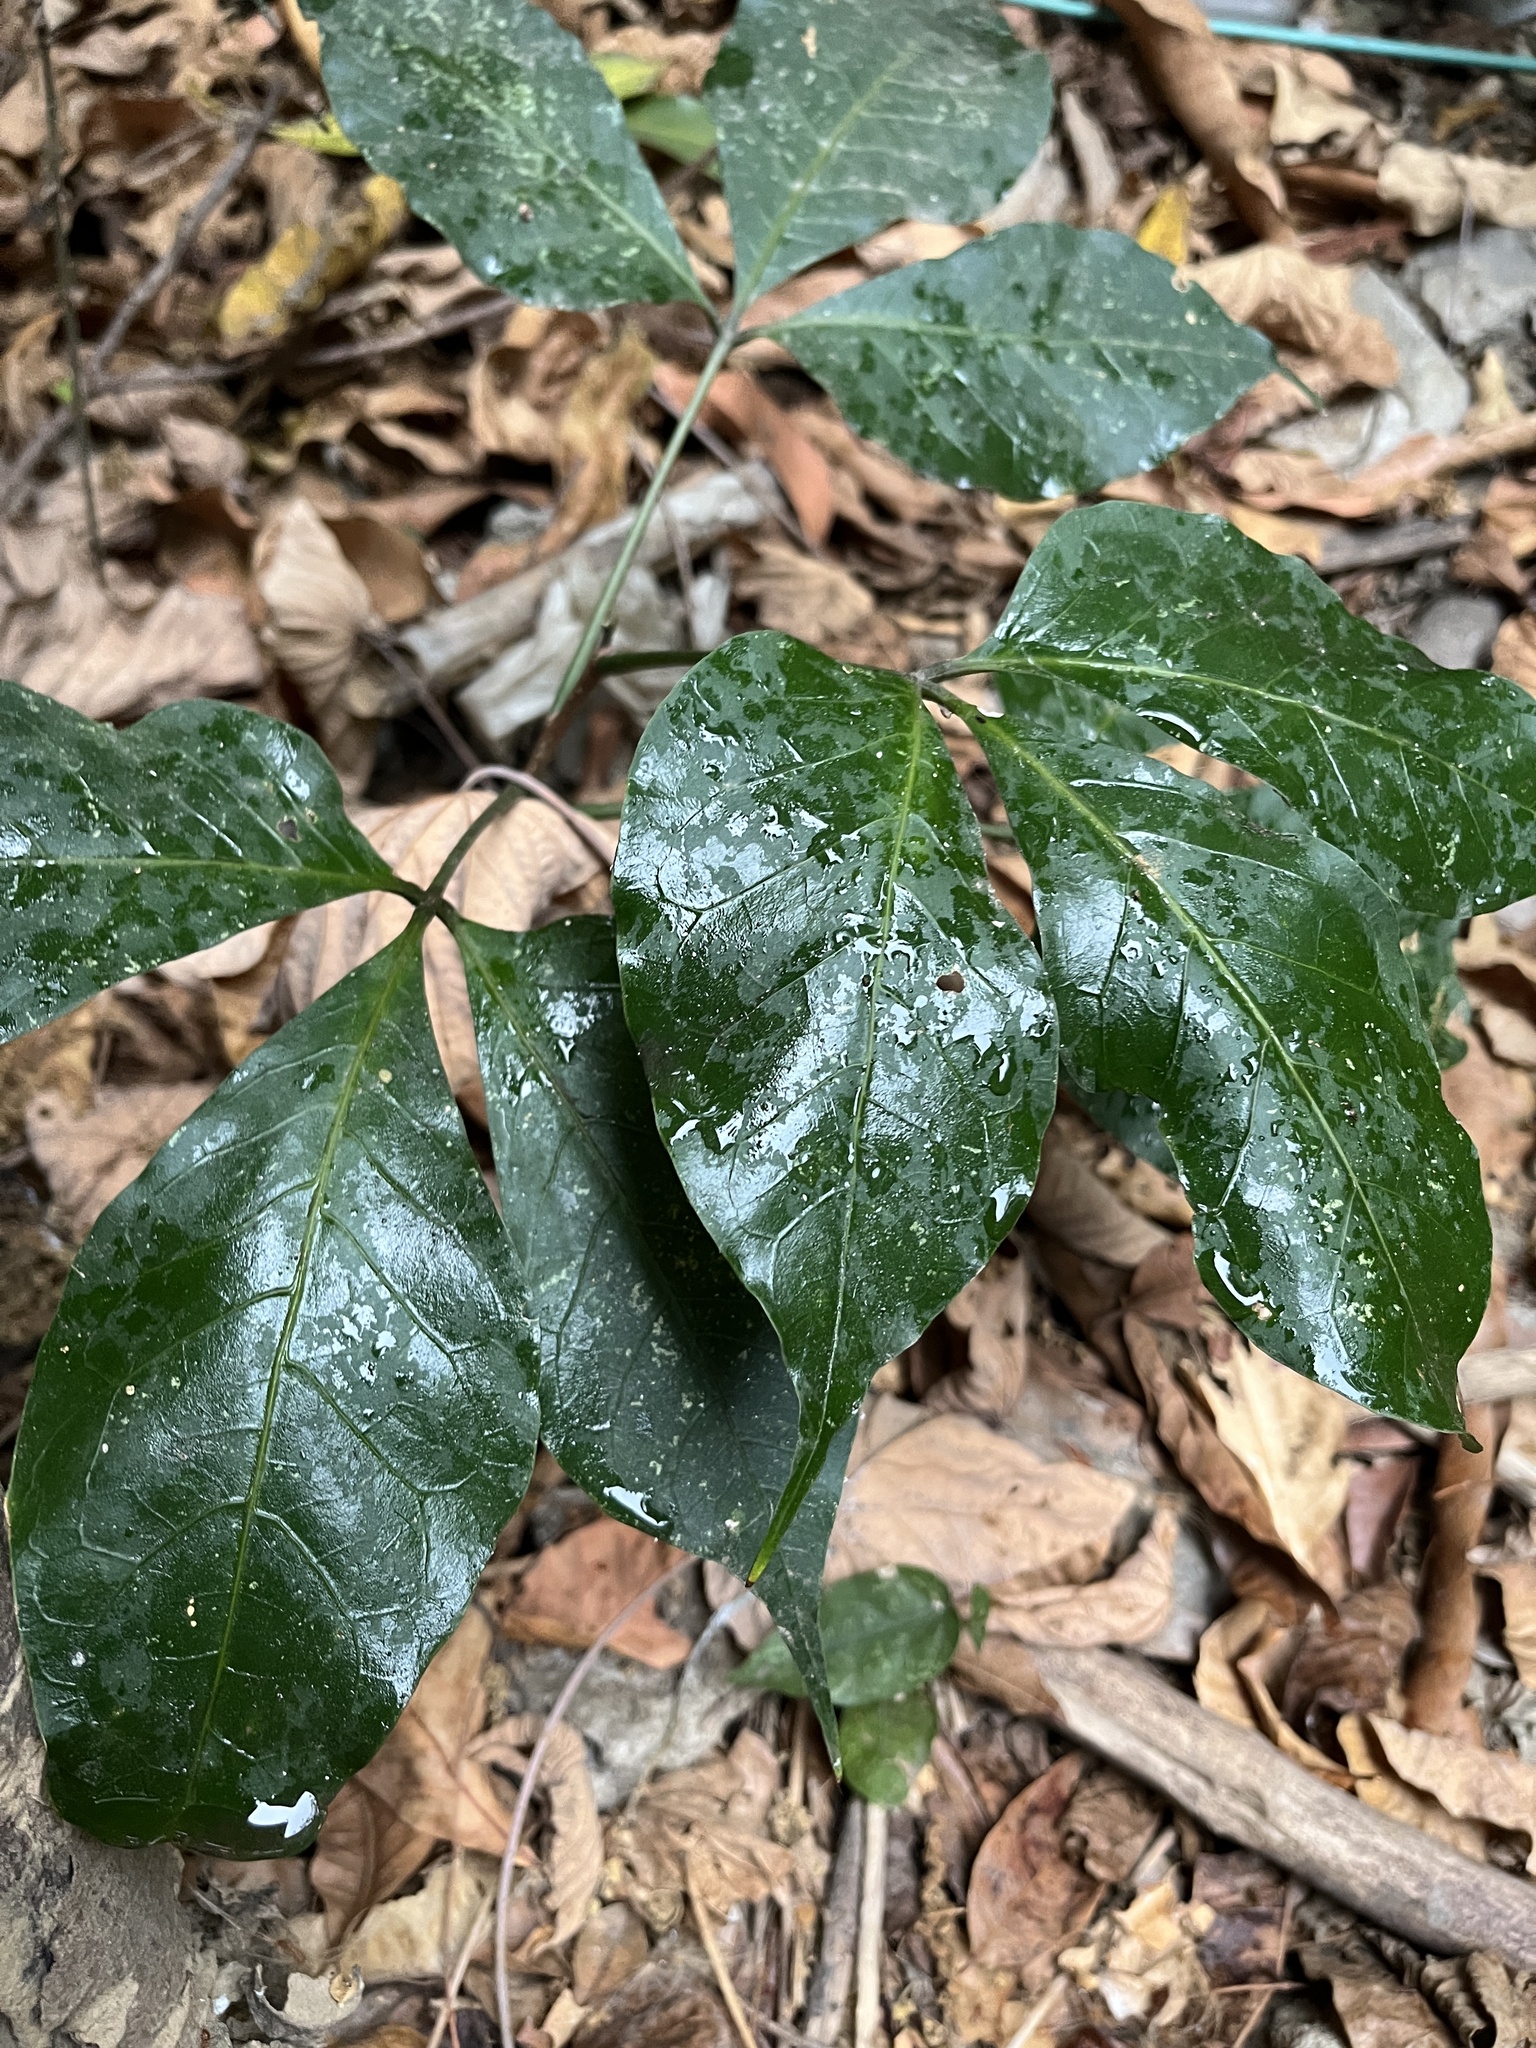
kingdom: Plantae
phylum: Tracheophyta
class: Magnoliopsida
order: Brassicales
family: Capparaceae
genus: Crateva
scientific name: Crateva adansonii
